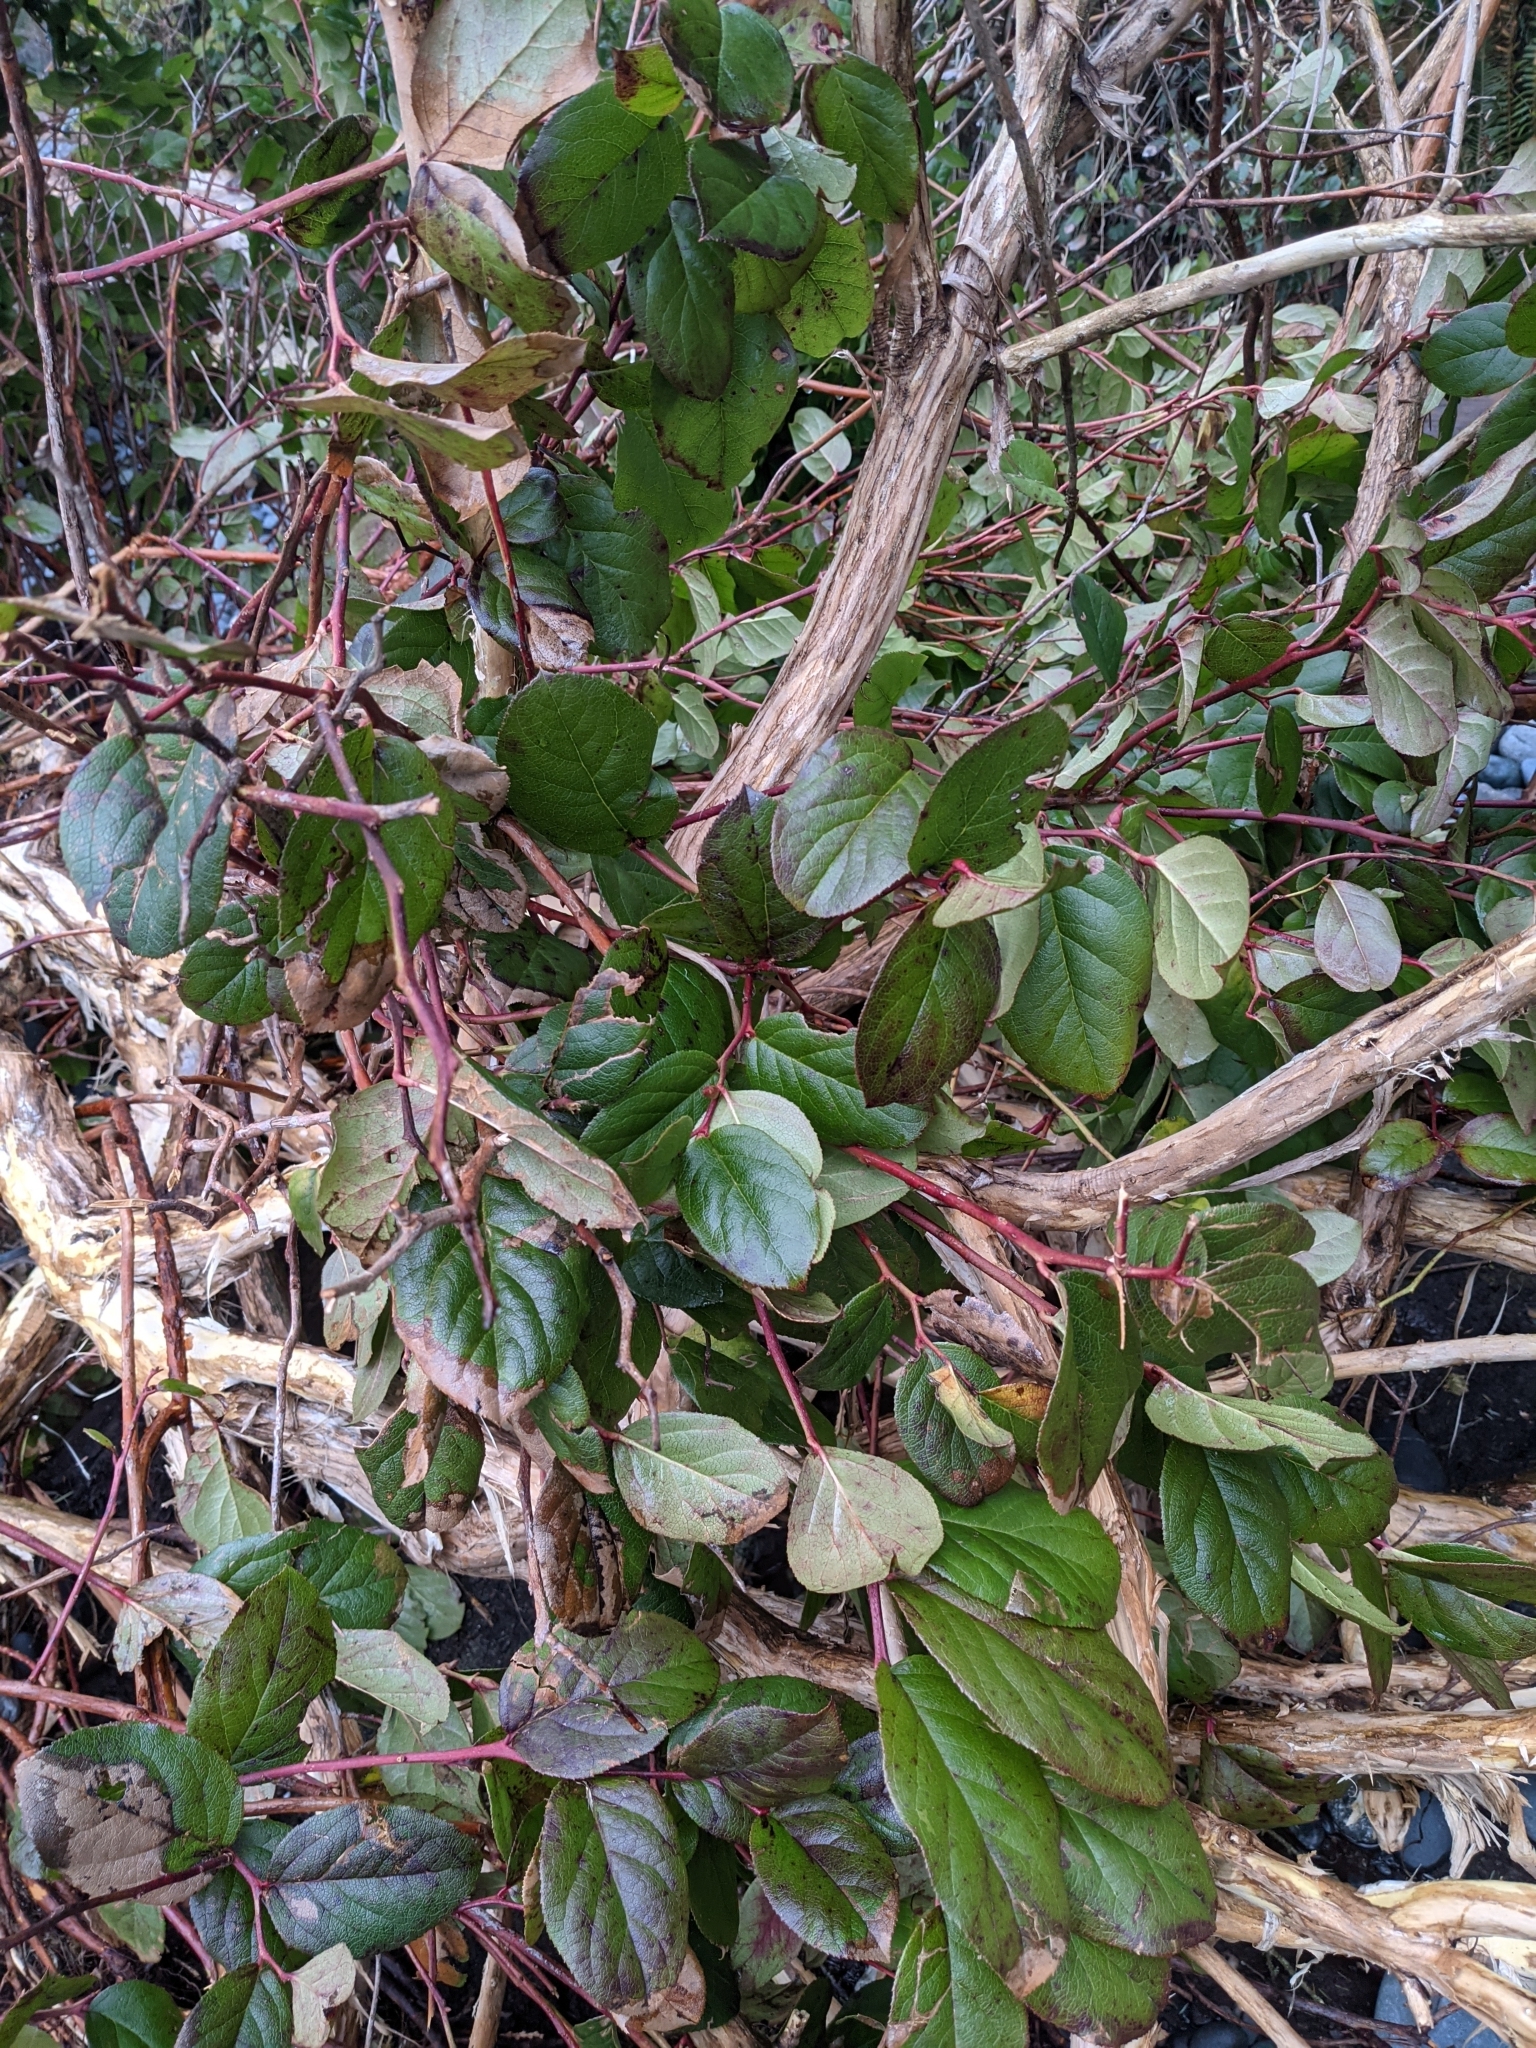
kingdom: Plantae
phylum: Tracheophyta
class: Magnoliopsida
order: Ericales
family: Ericaceae
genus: Gaultheria
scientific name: Gaultheria shallon
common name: Shallon
